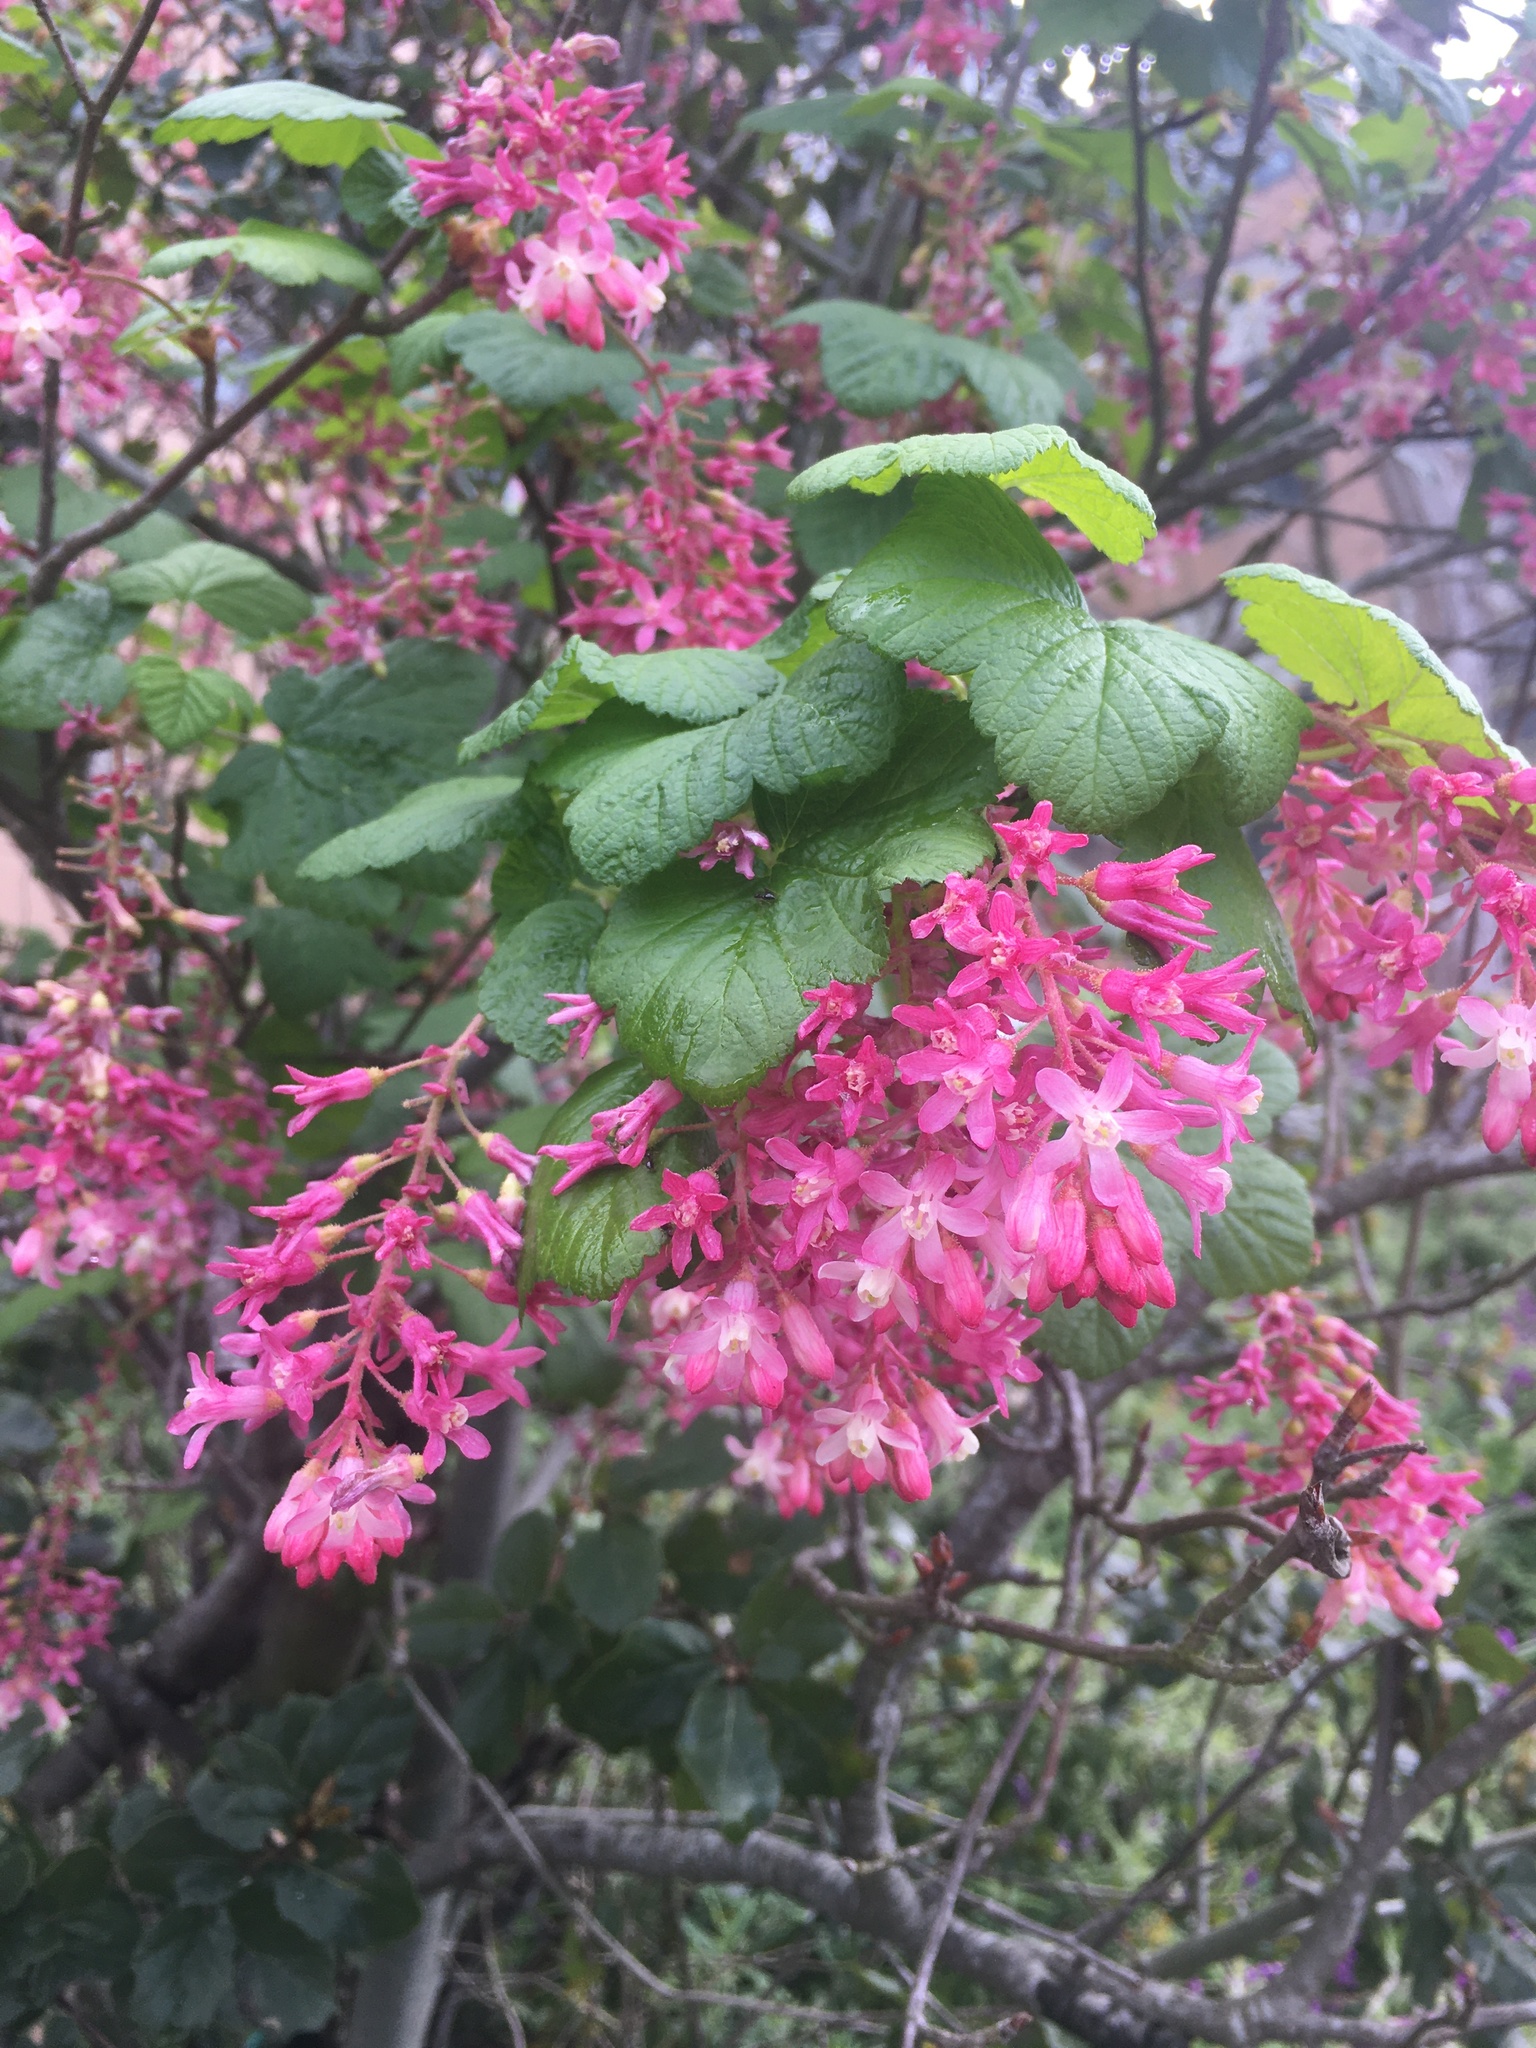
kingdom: Plantae
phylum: Tracheophyta
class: Magnoliopsida
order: Saxifragales
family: Grossulariaceae
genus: Ribes
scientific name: Ribes sanguineum
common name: Flowering currant
